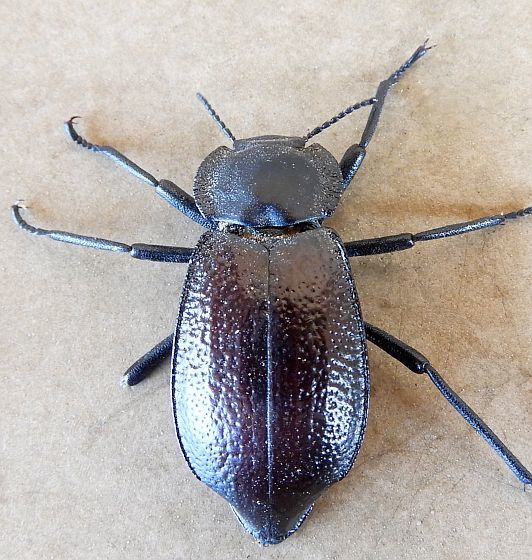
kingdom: Animalia
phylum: Arthropoda
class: Insecta
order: Coleoptera
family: Tenebrionidae
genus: Stenomorpha
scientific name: Stenomorpha marginata
